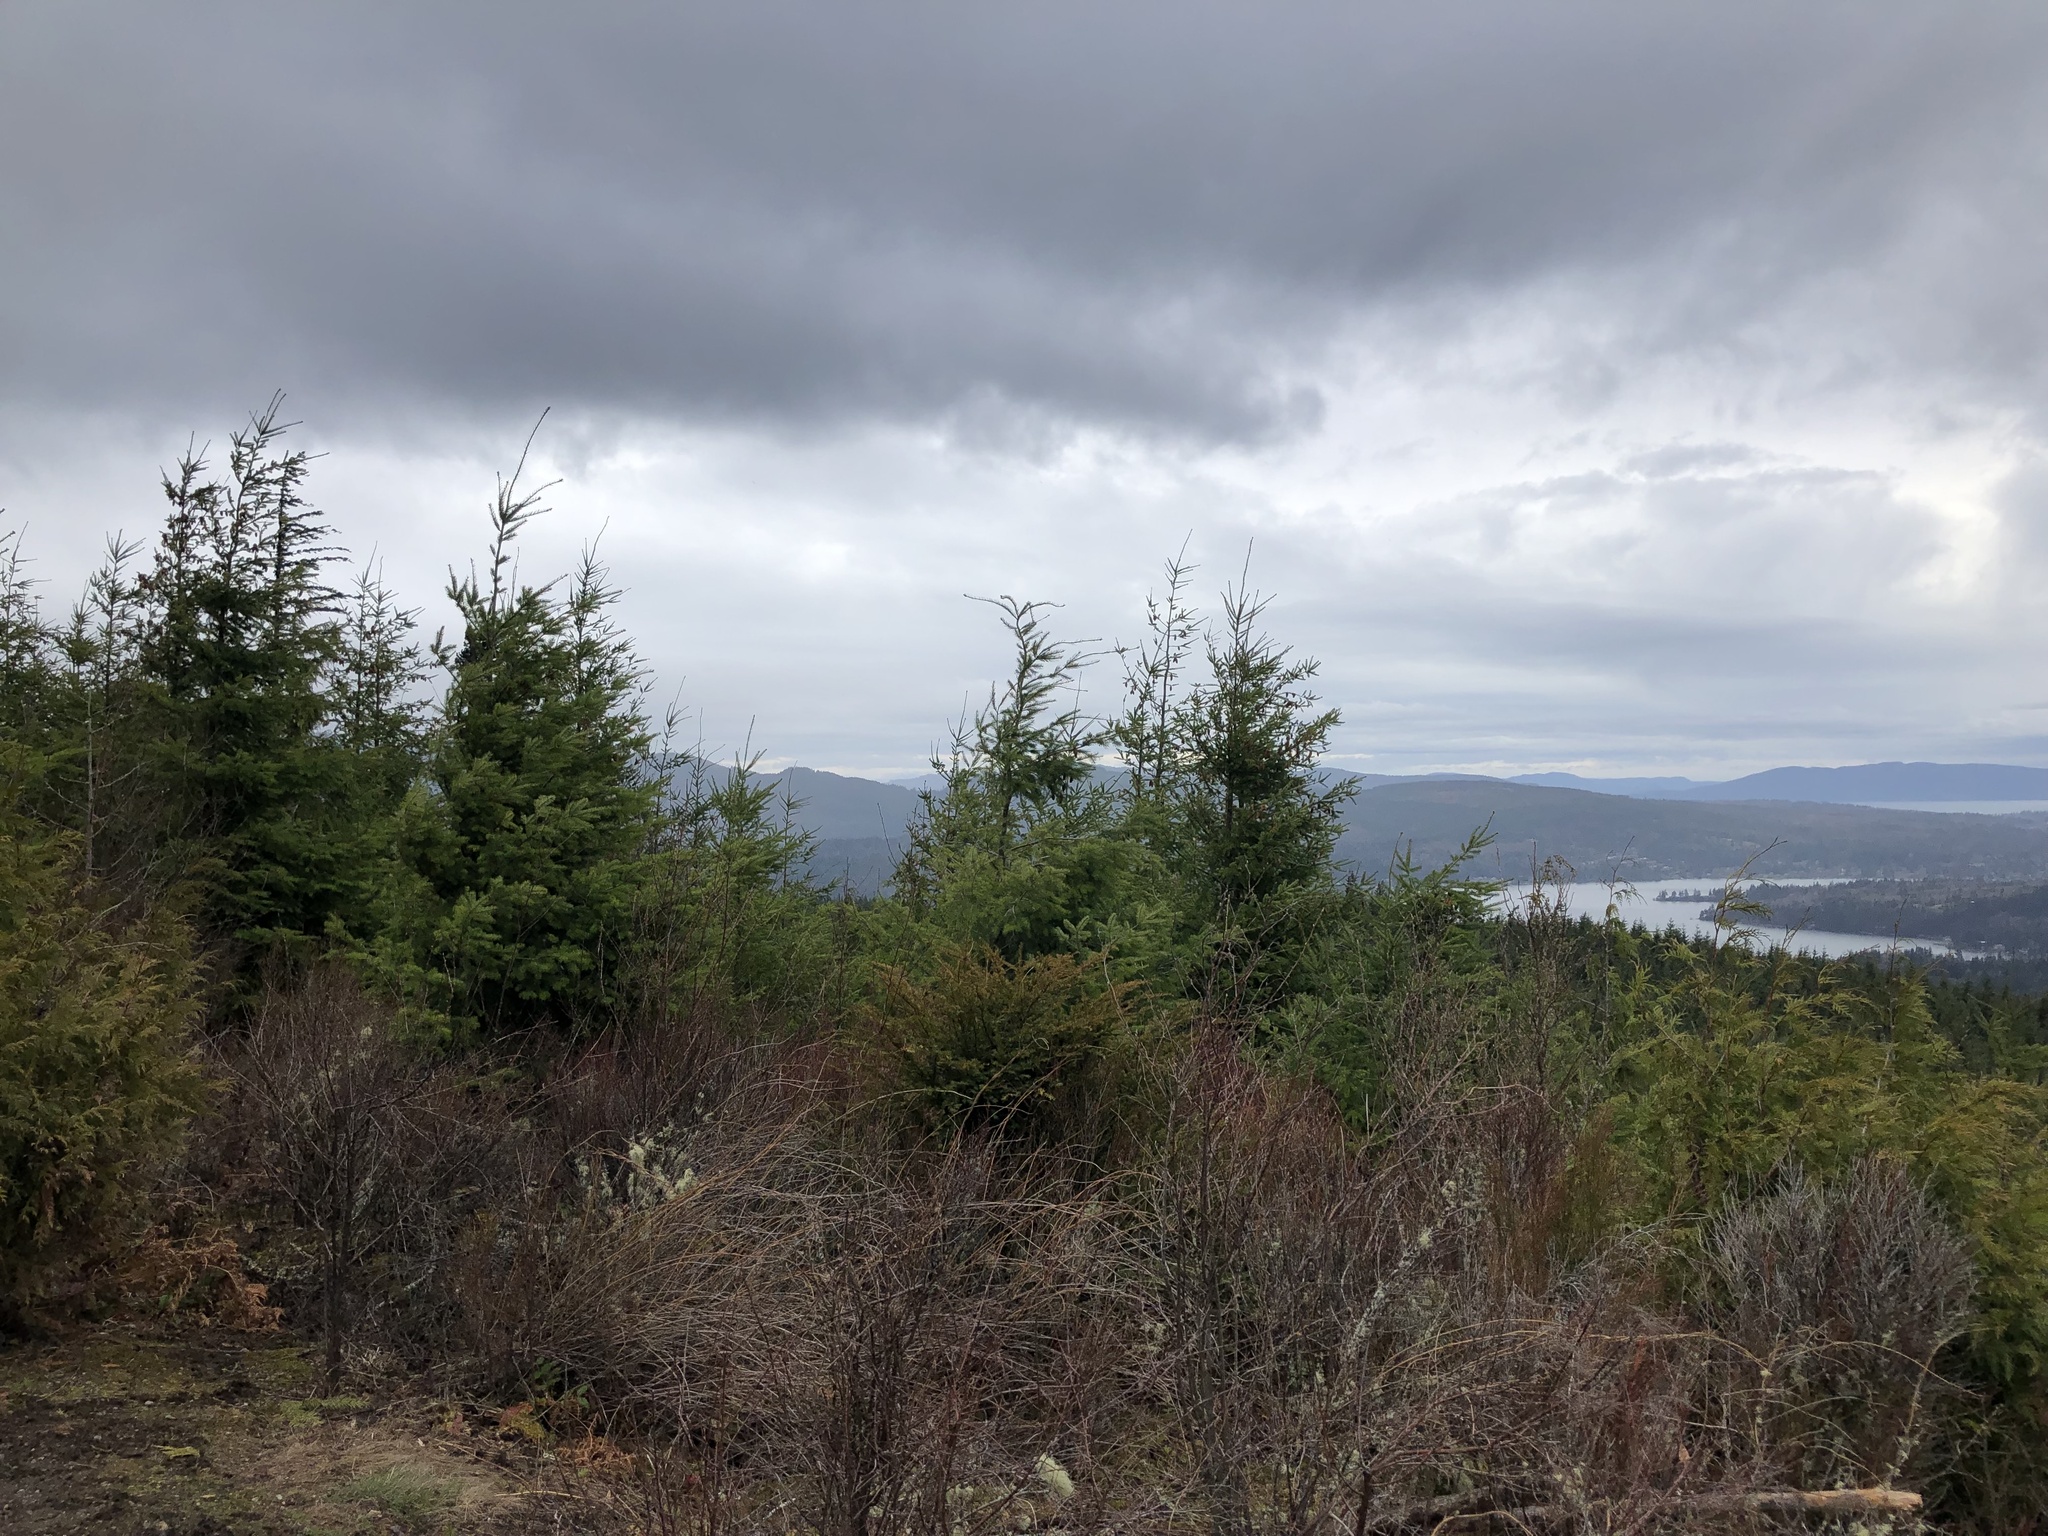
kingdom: Plantae
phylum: Tracheophyta
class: Pinopsida
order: Pinales
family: Pinaceae
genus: Pseudotsuga
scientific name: Pseudotsuga menziesii
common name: Douglas fir
